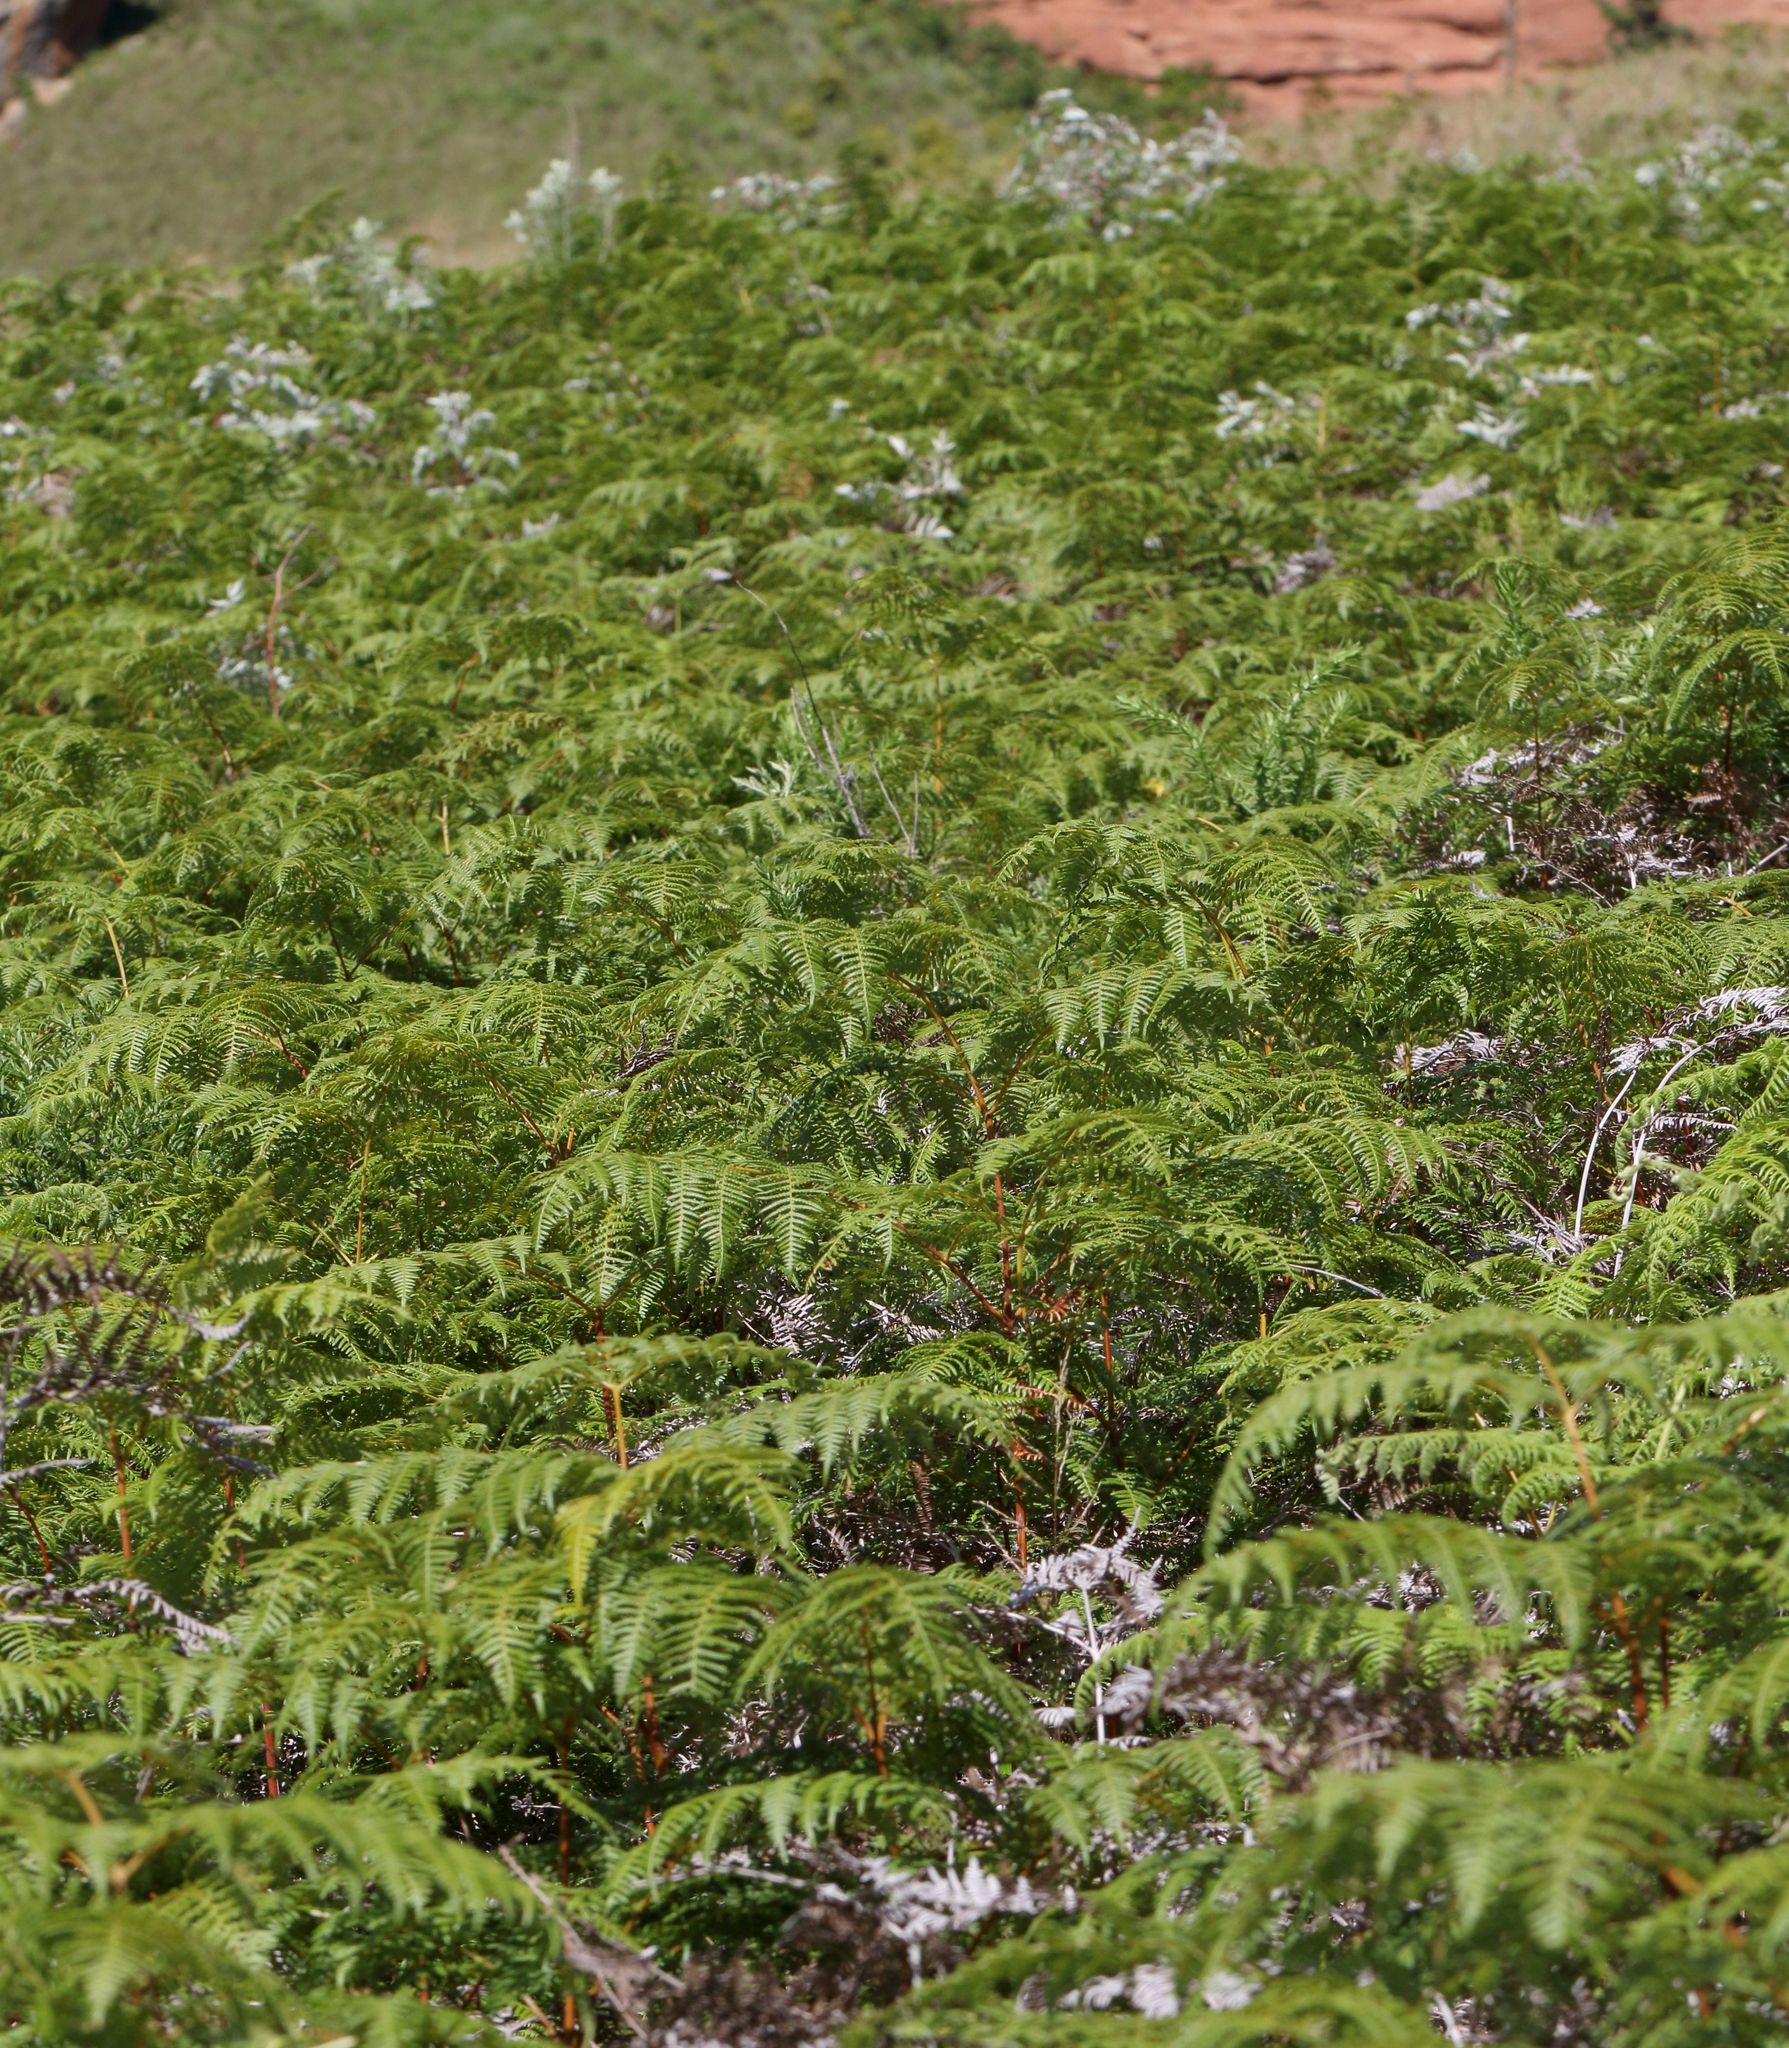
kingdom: Plantae
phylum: Tracheophyta
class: Polypodiopsida
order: Polypodiales
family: Dennstaedtiaceae
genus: Pteridium
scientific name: Pteridium aquilinum
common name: Bracken
